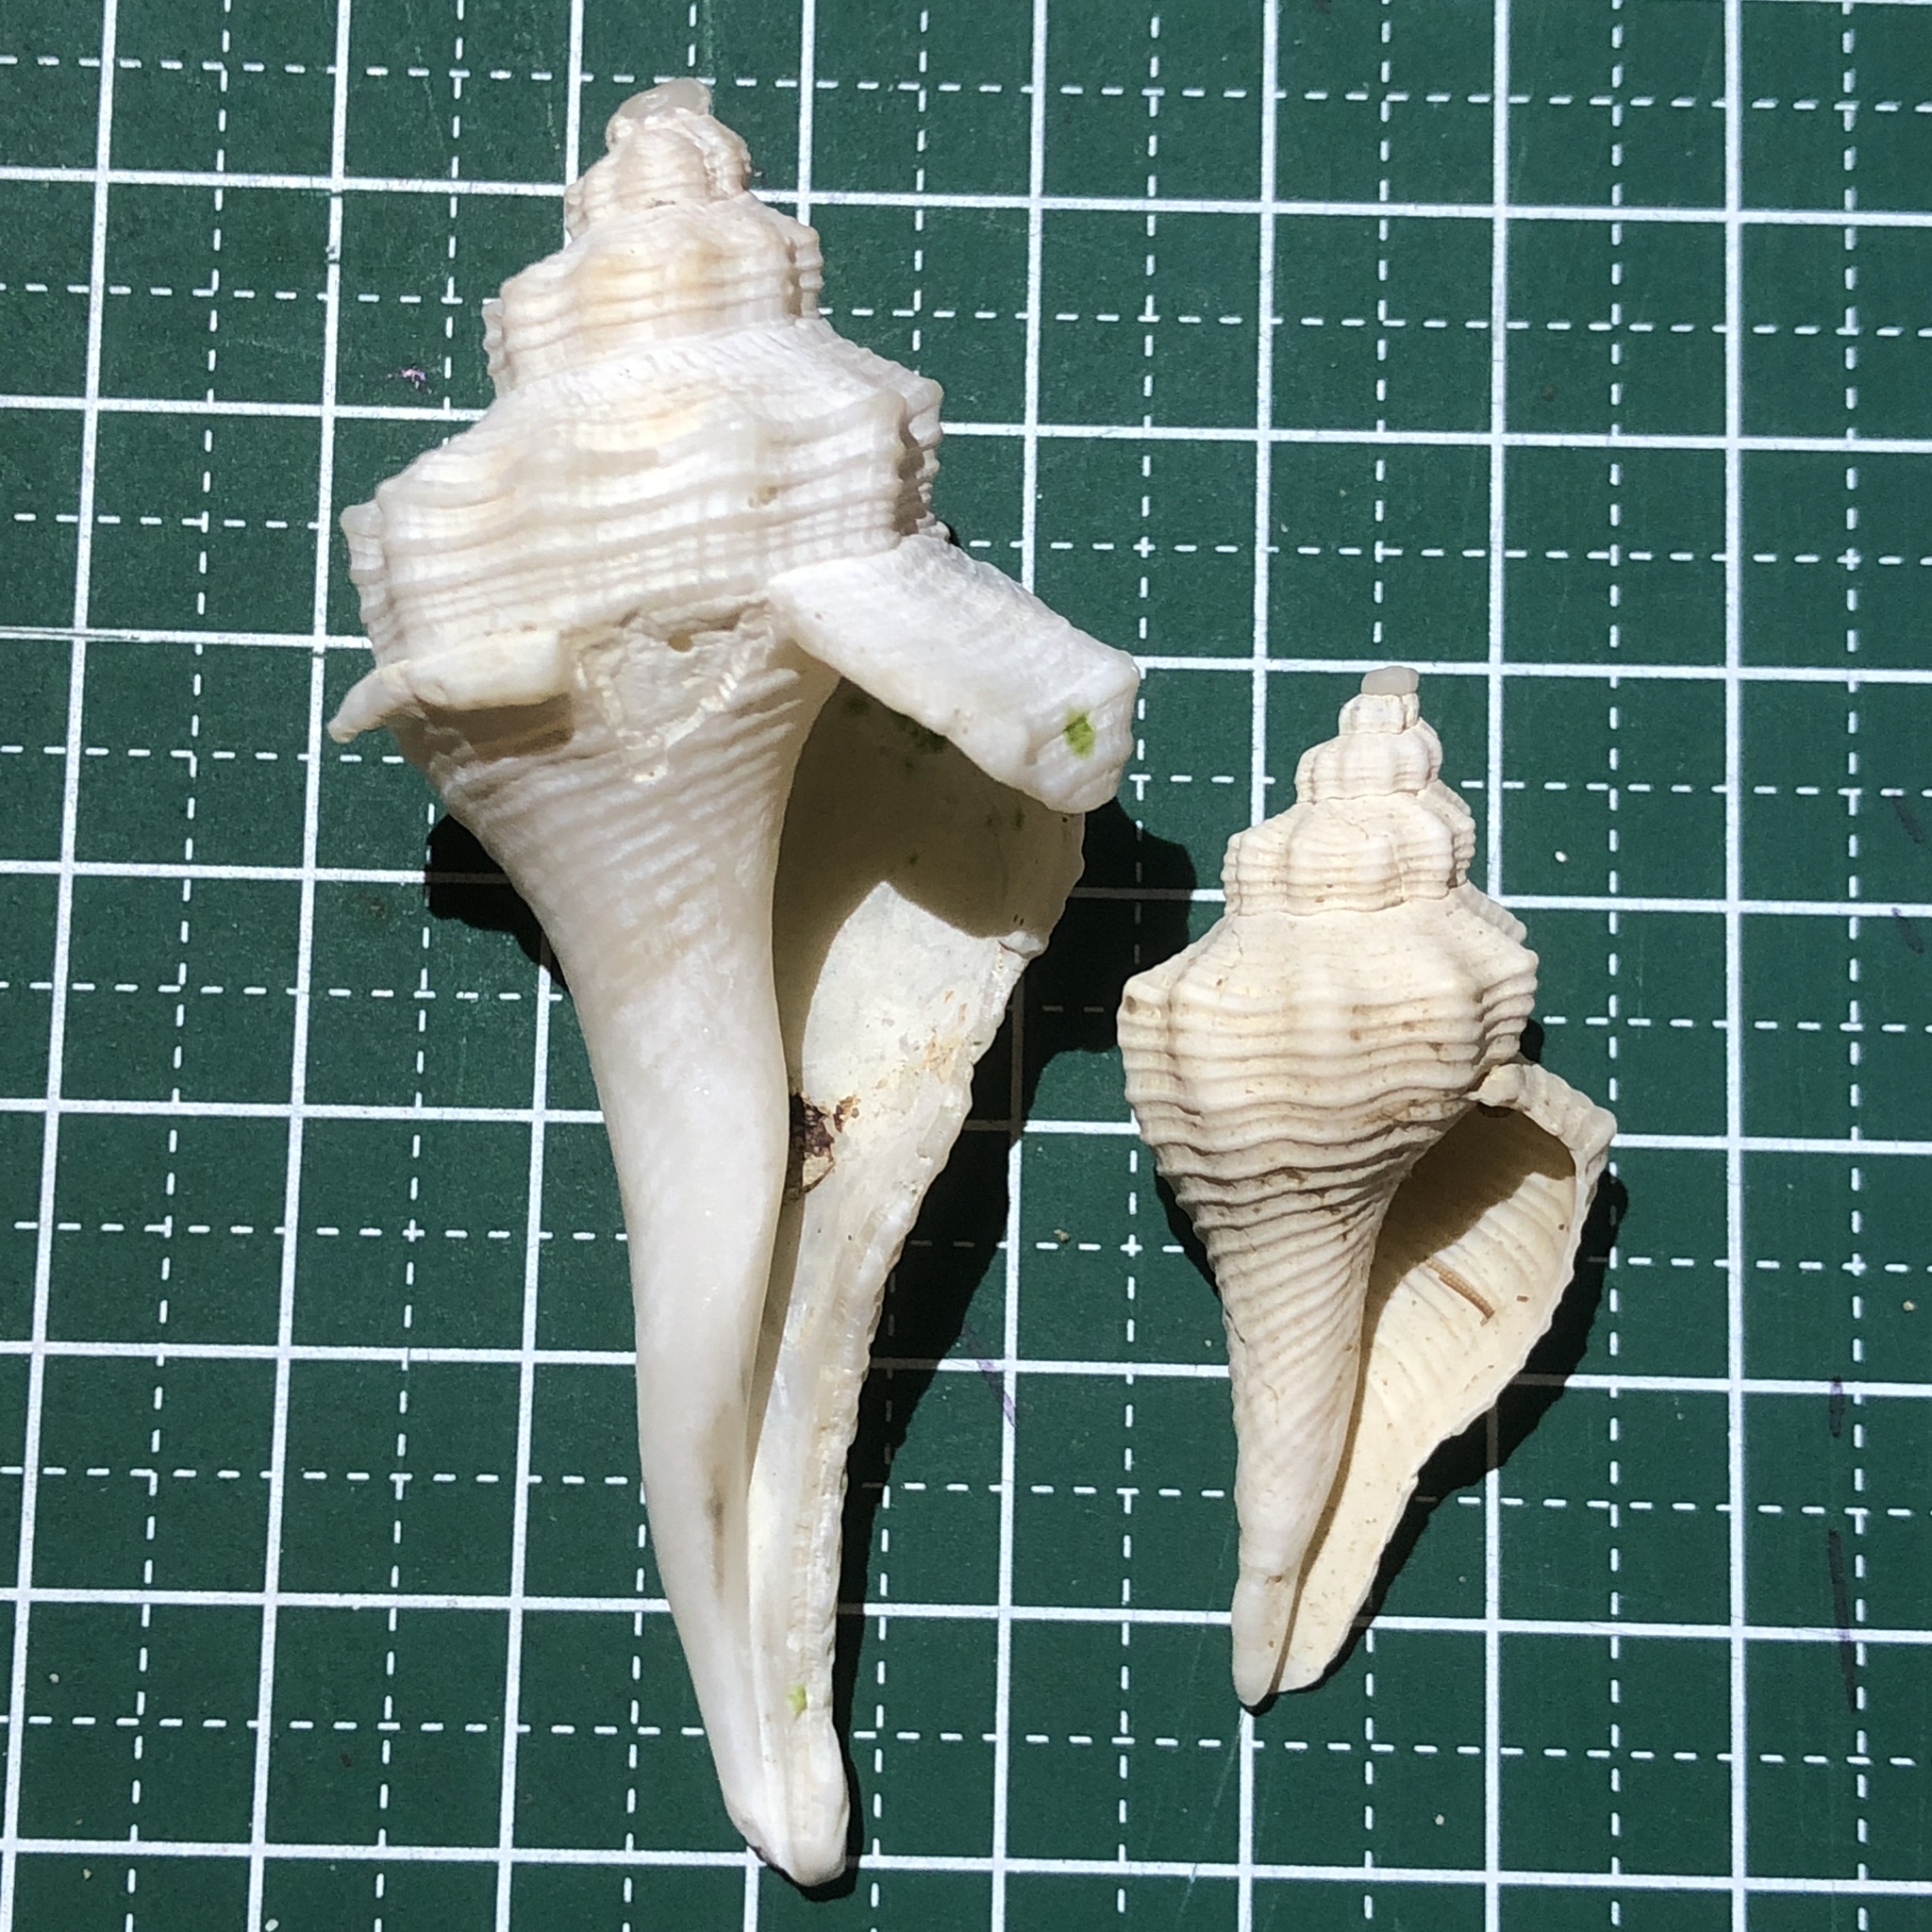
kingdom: Animalia
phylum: Mollusca
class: Gastropoda
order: Neogastropoda
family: Melongenidae
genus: Hemifusus
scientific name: Hemifusus tuba
